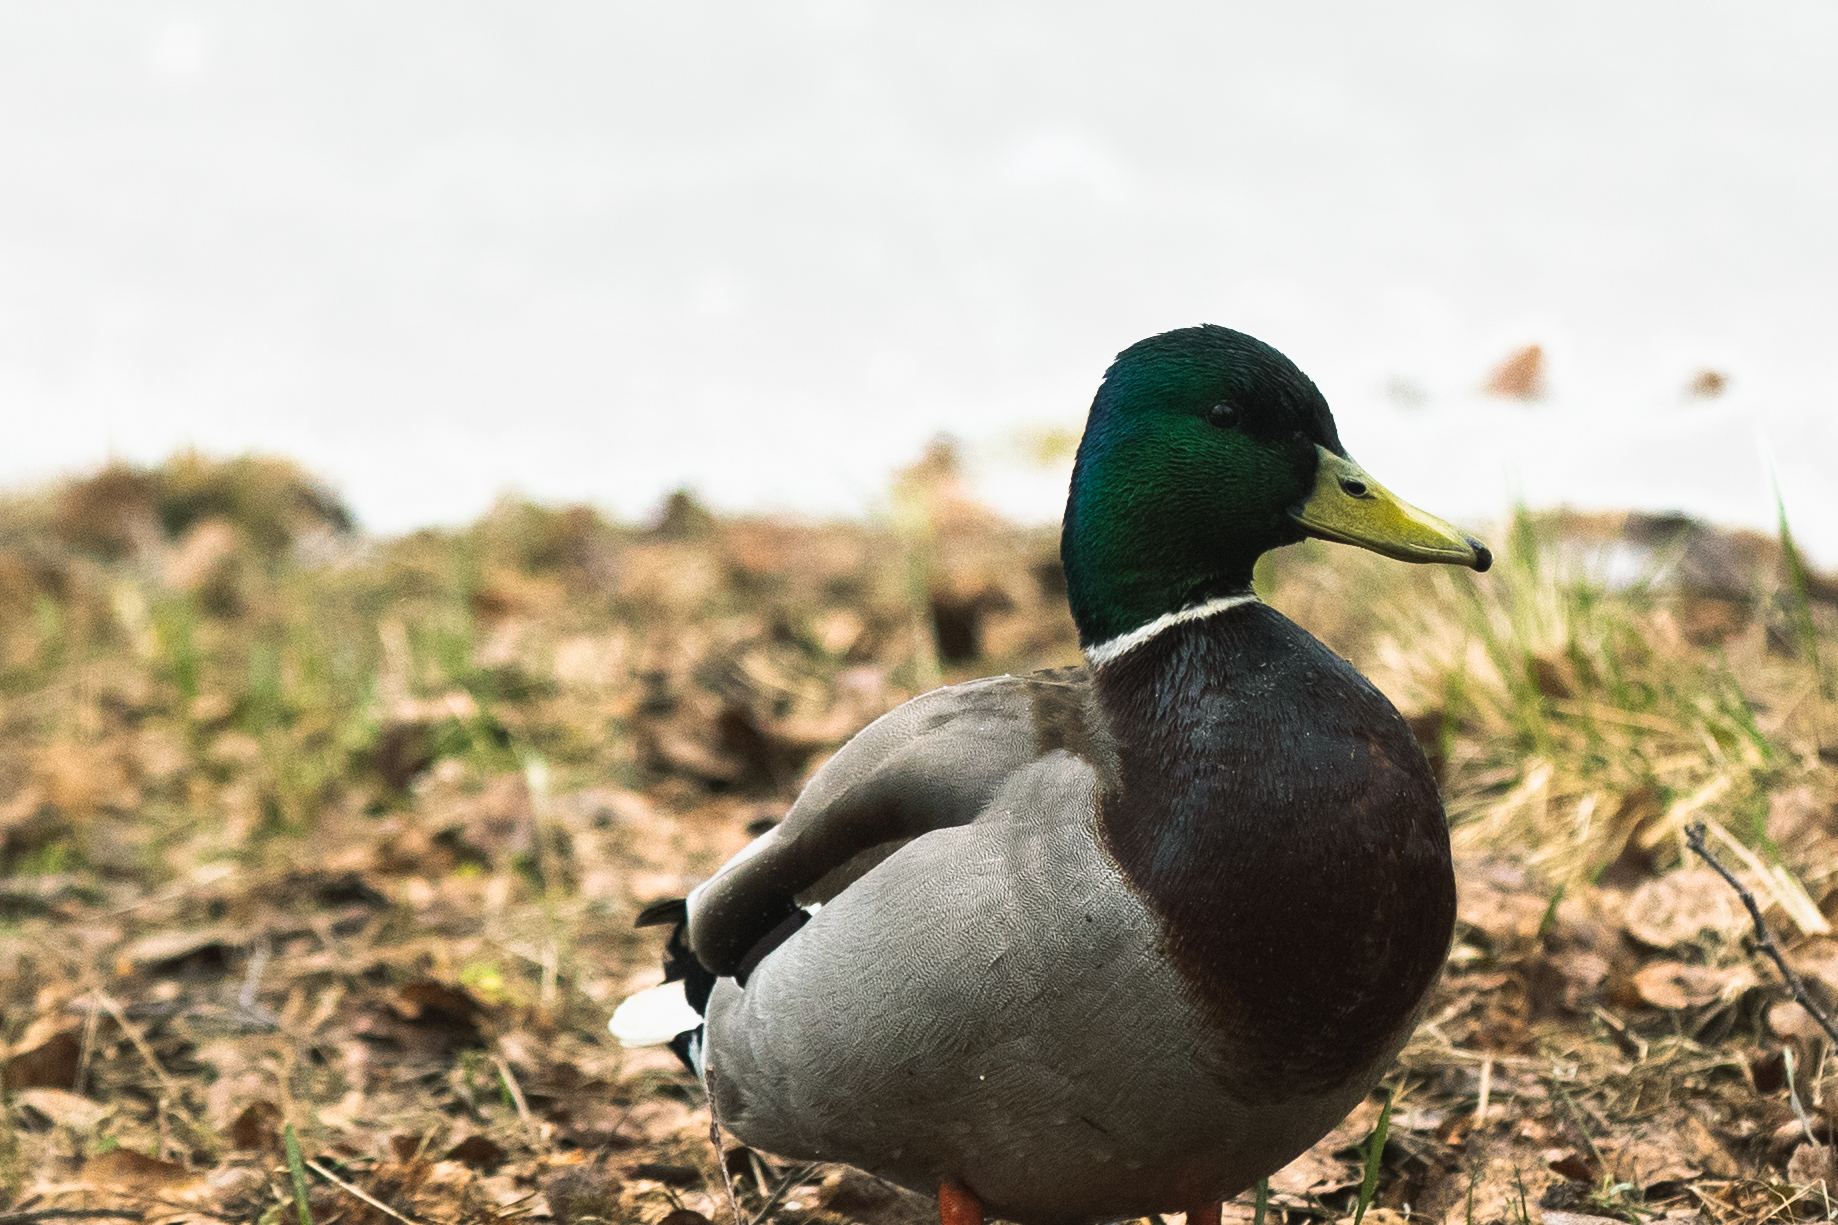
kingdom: Animalia
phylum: Chordata
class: Aves
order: Anseriformes
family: Anatidae
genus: Anas
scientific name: Anas platyrhynchos
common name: Mallard
